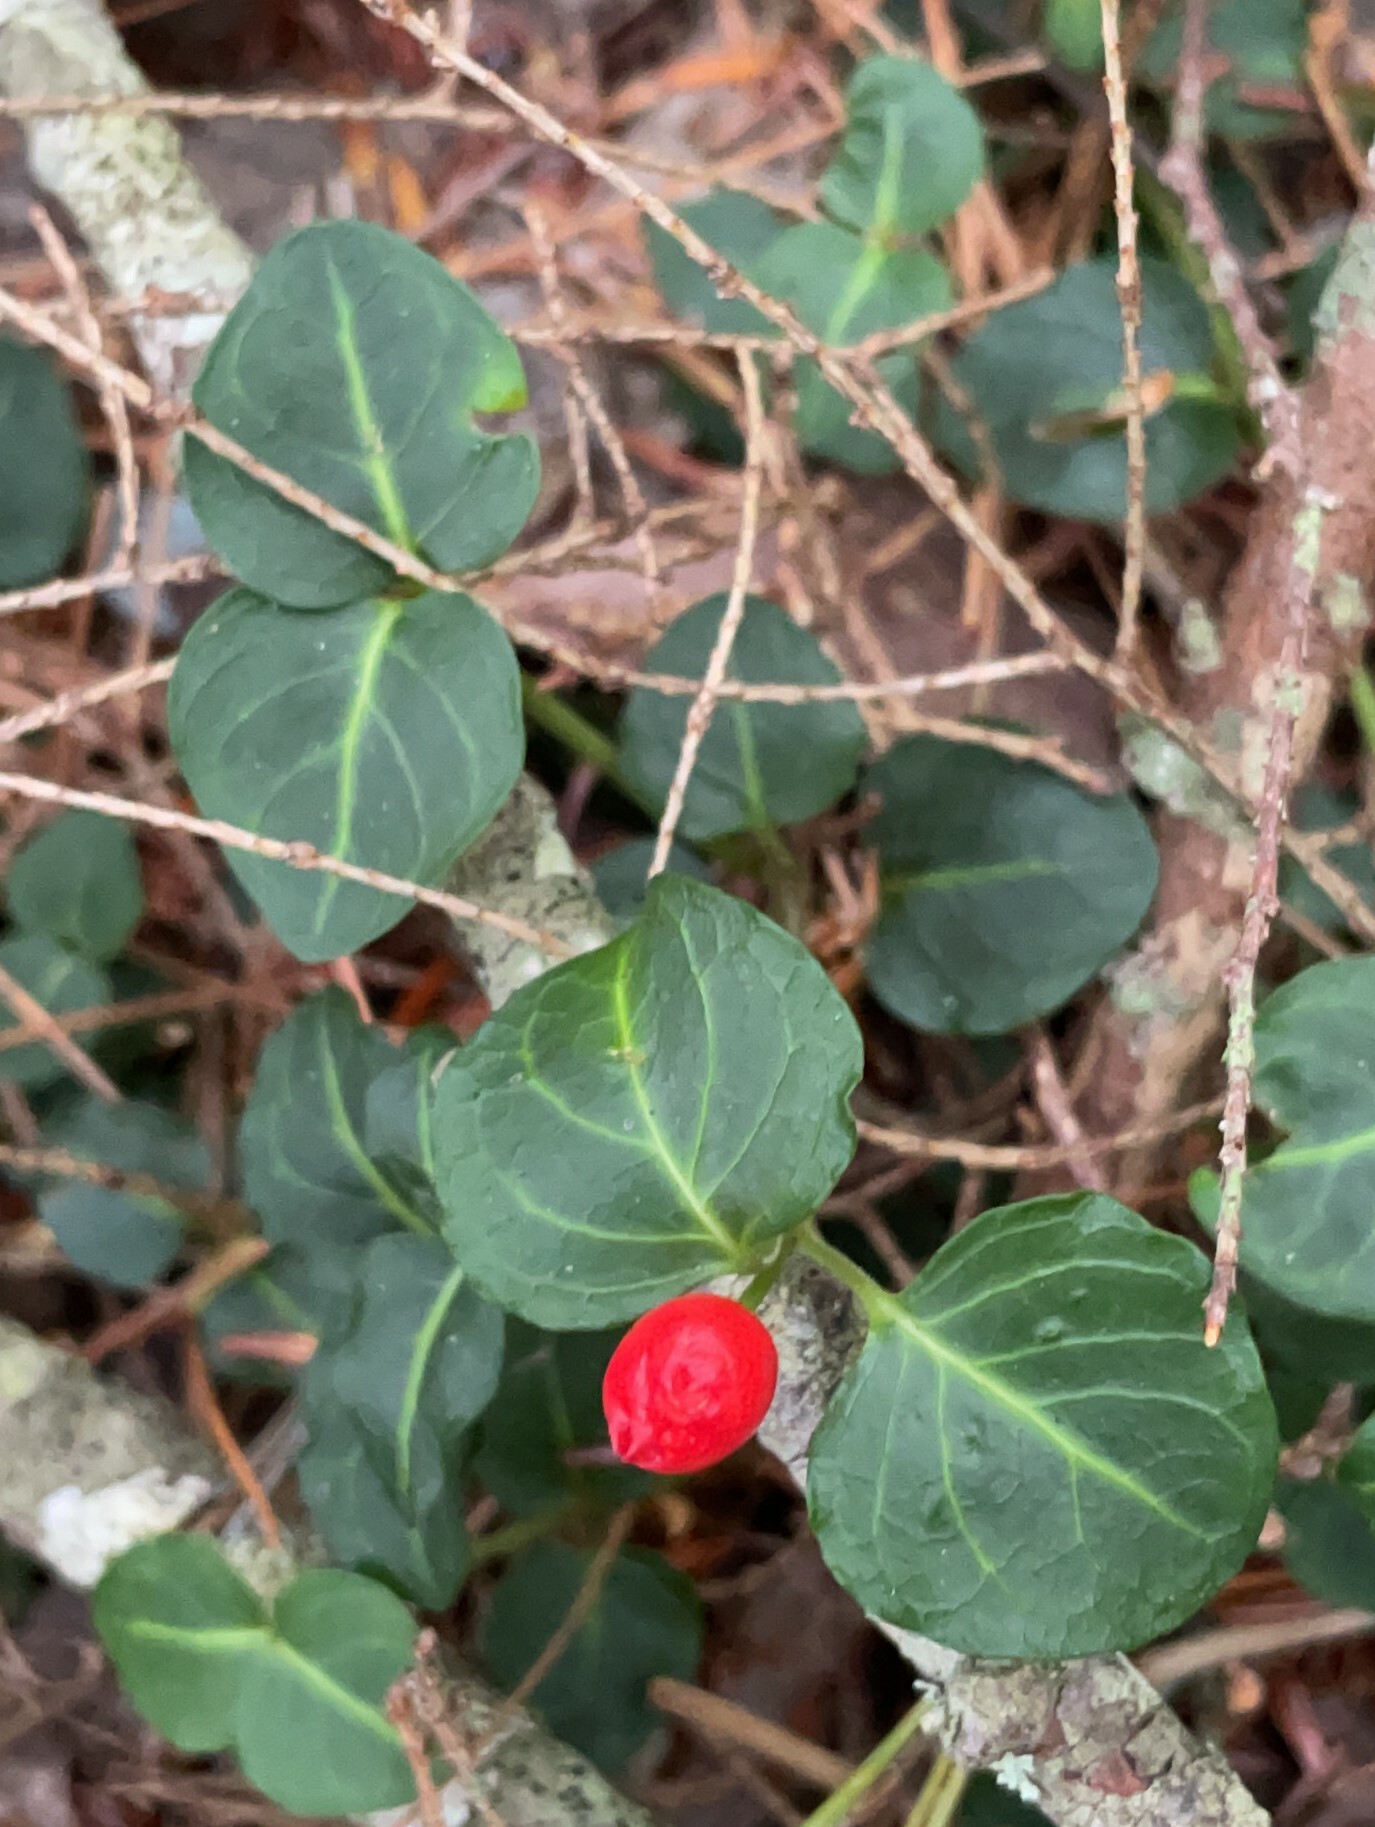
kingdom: Plantae
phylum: Tracheophyta
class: Magnoliopsida
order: Gentianales
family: Rubiaceae
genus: Mitchella
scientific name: Mitchella repens
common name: Partridge-berry
